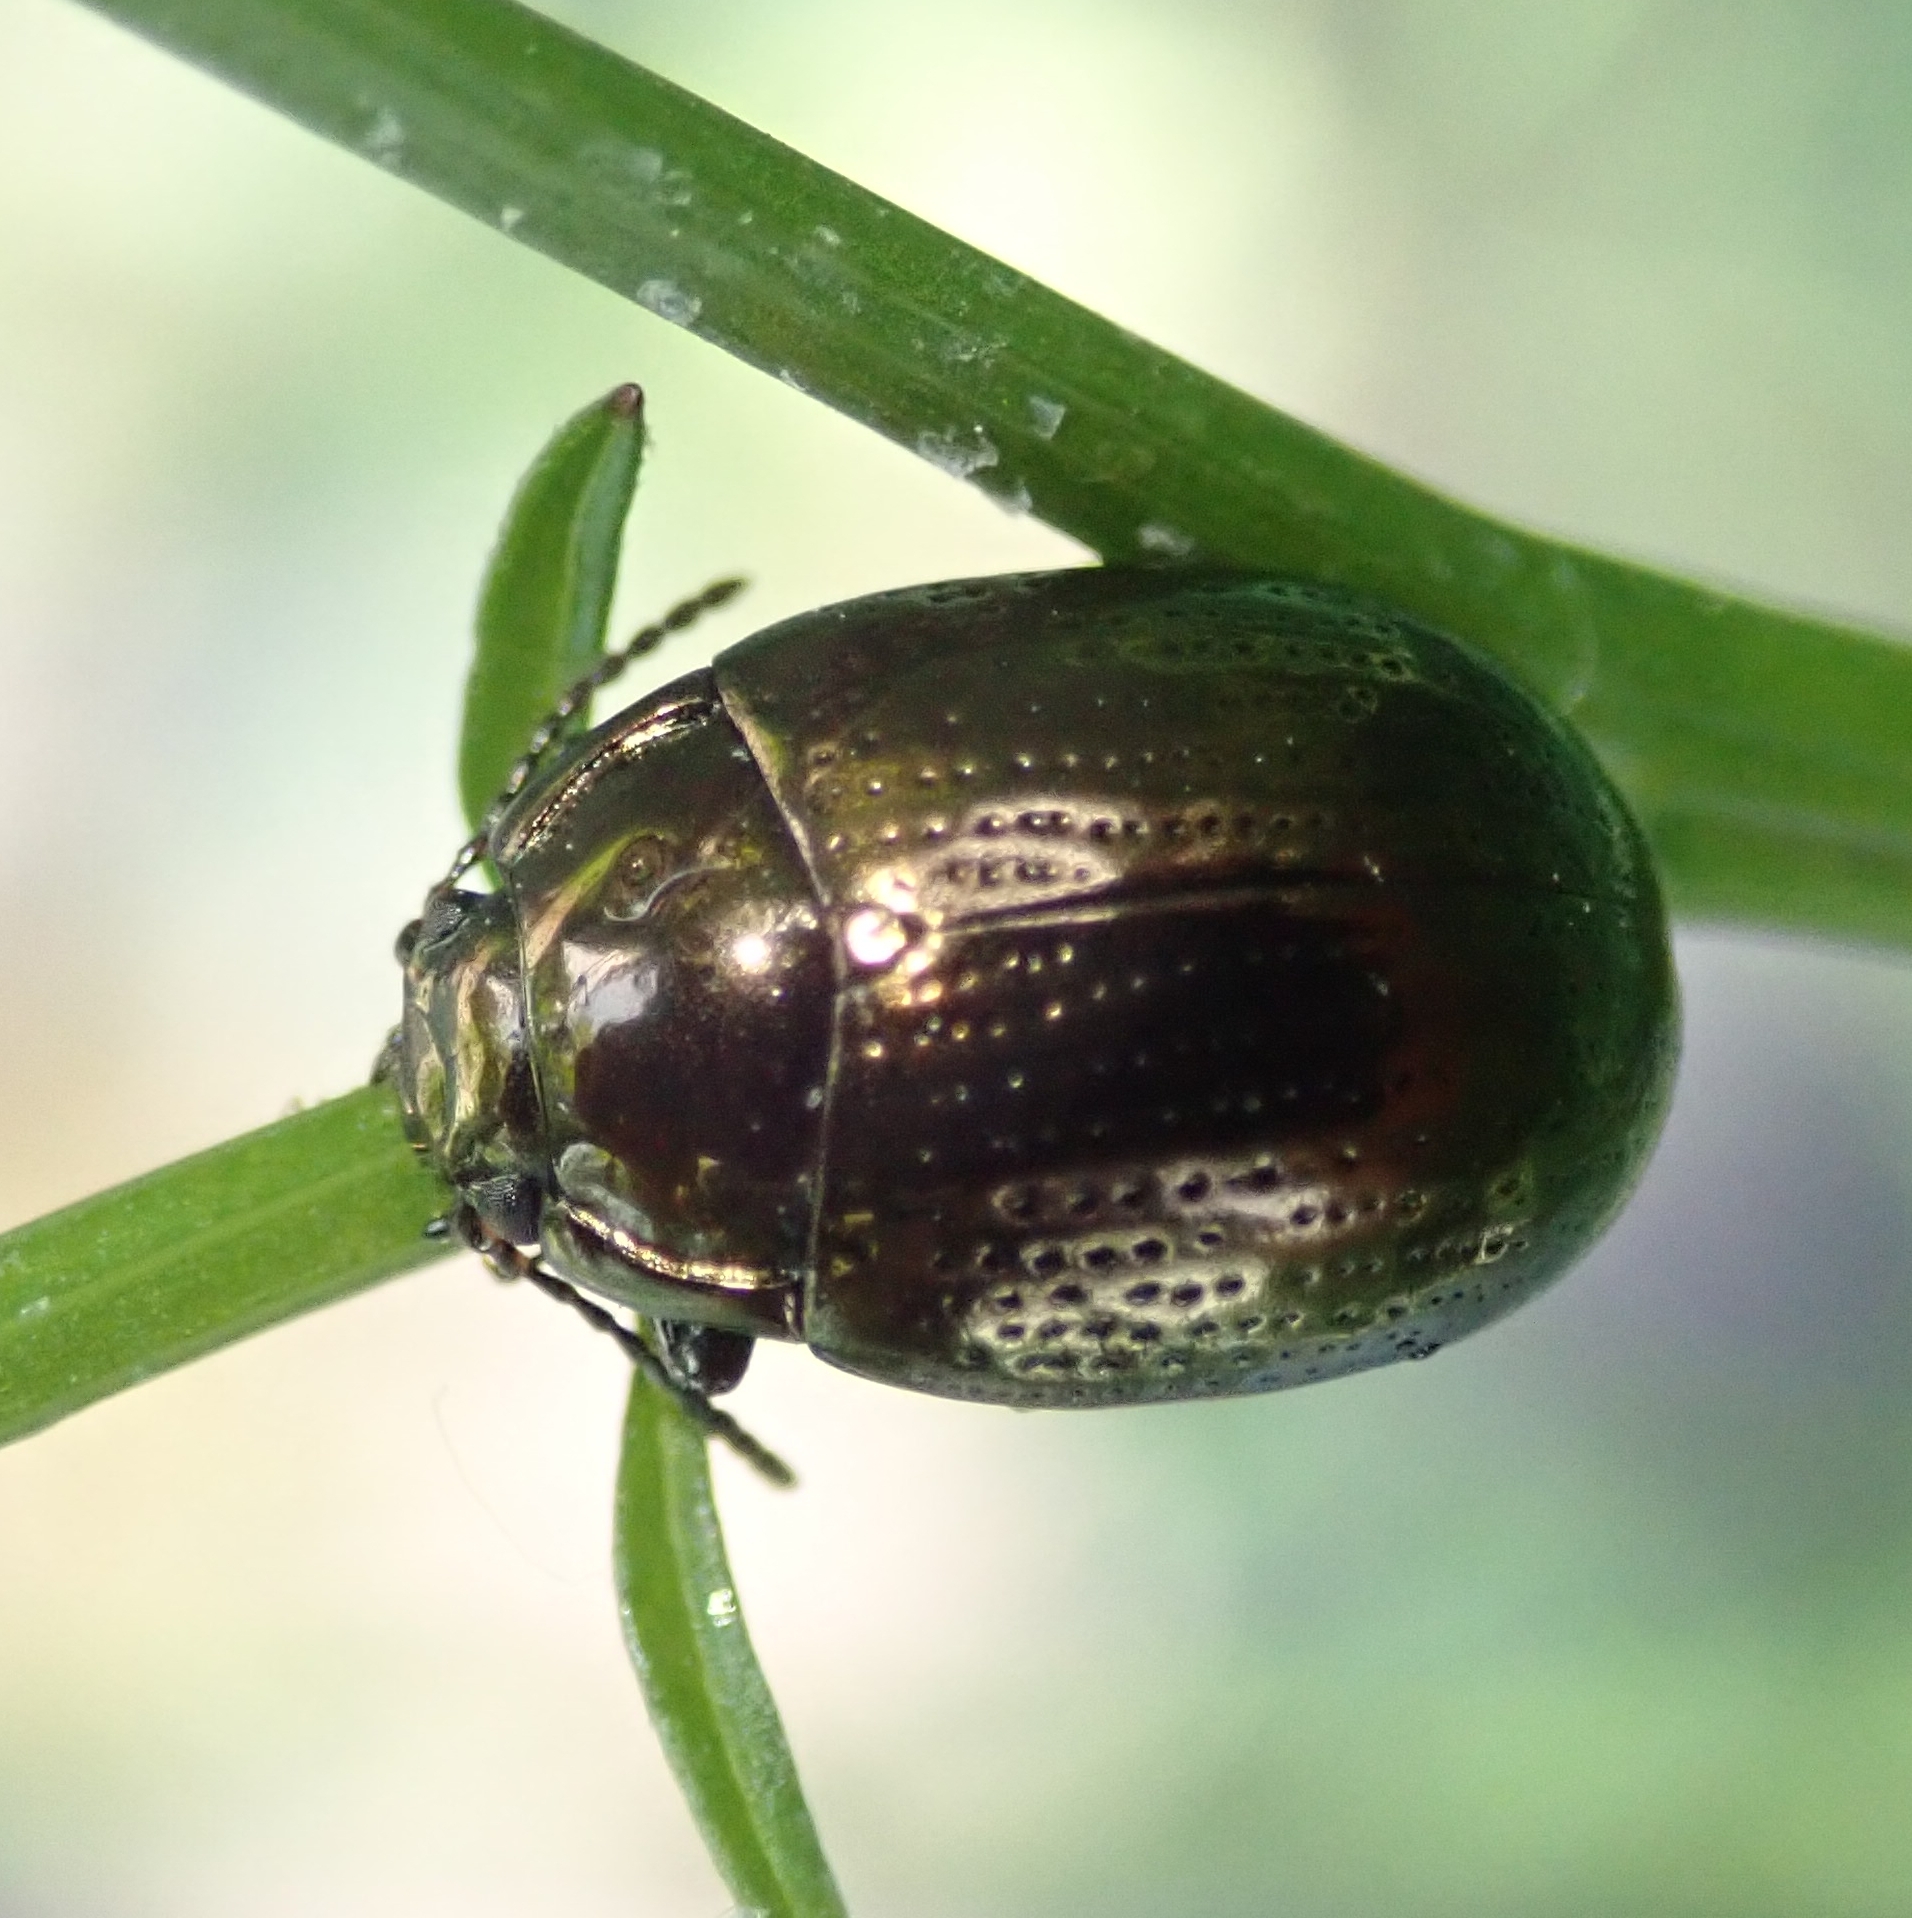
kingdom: Animalia
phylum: Arthropoda
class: Insecta
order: Coleoptera
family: Chrysomelidae
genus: Chrysolina
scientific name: Chrysolina oricalcia
